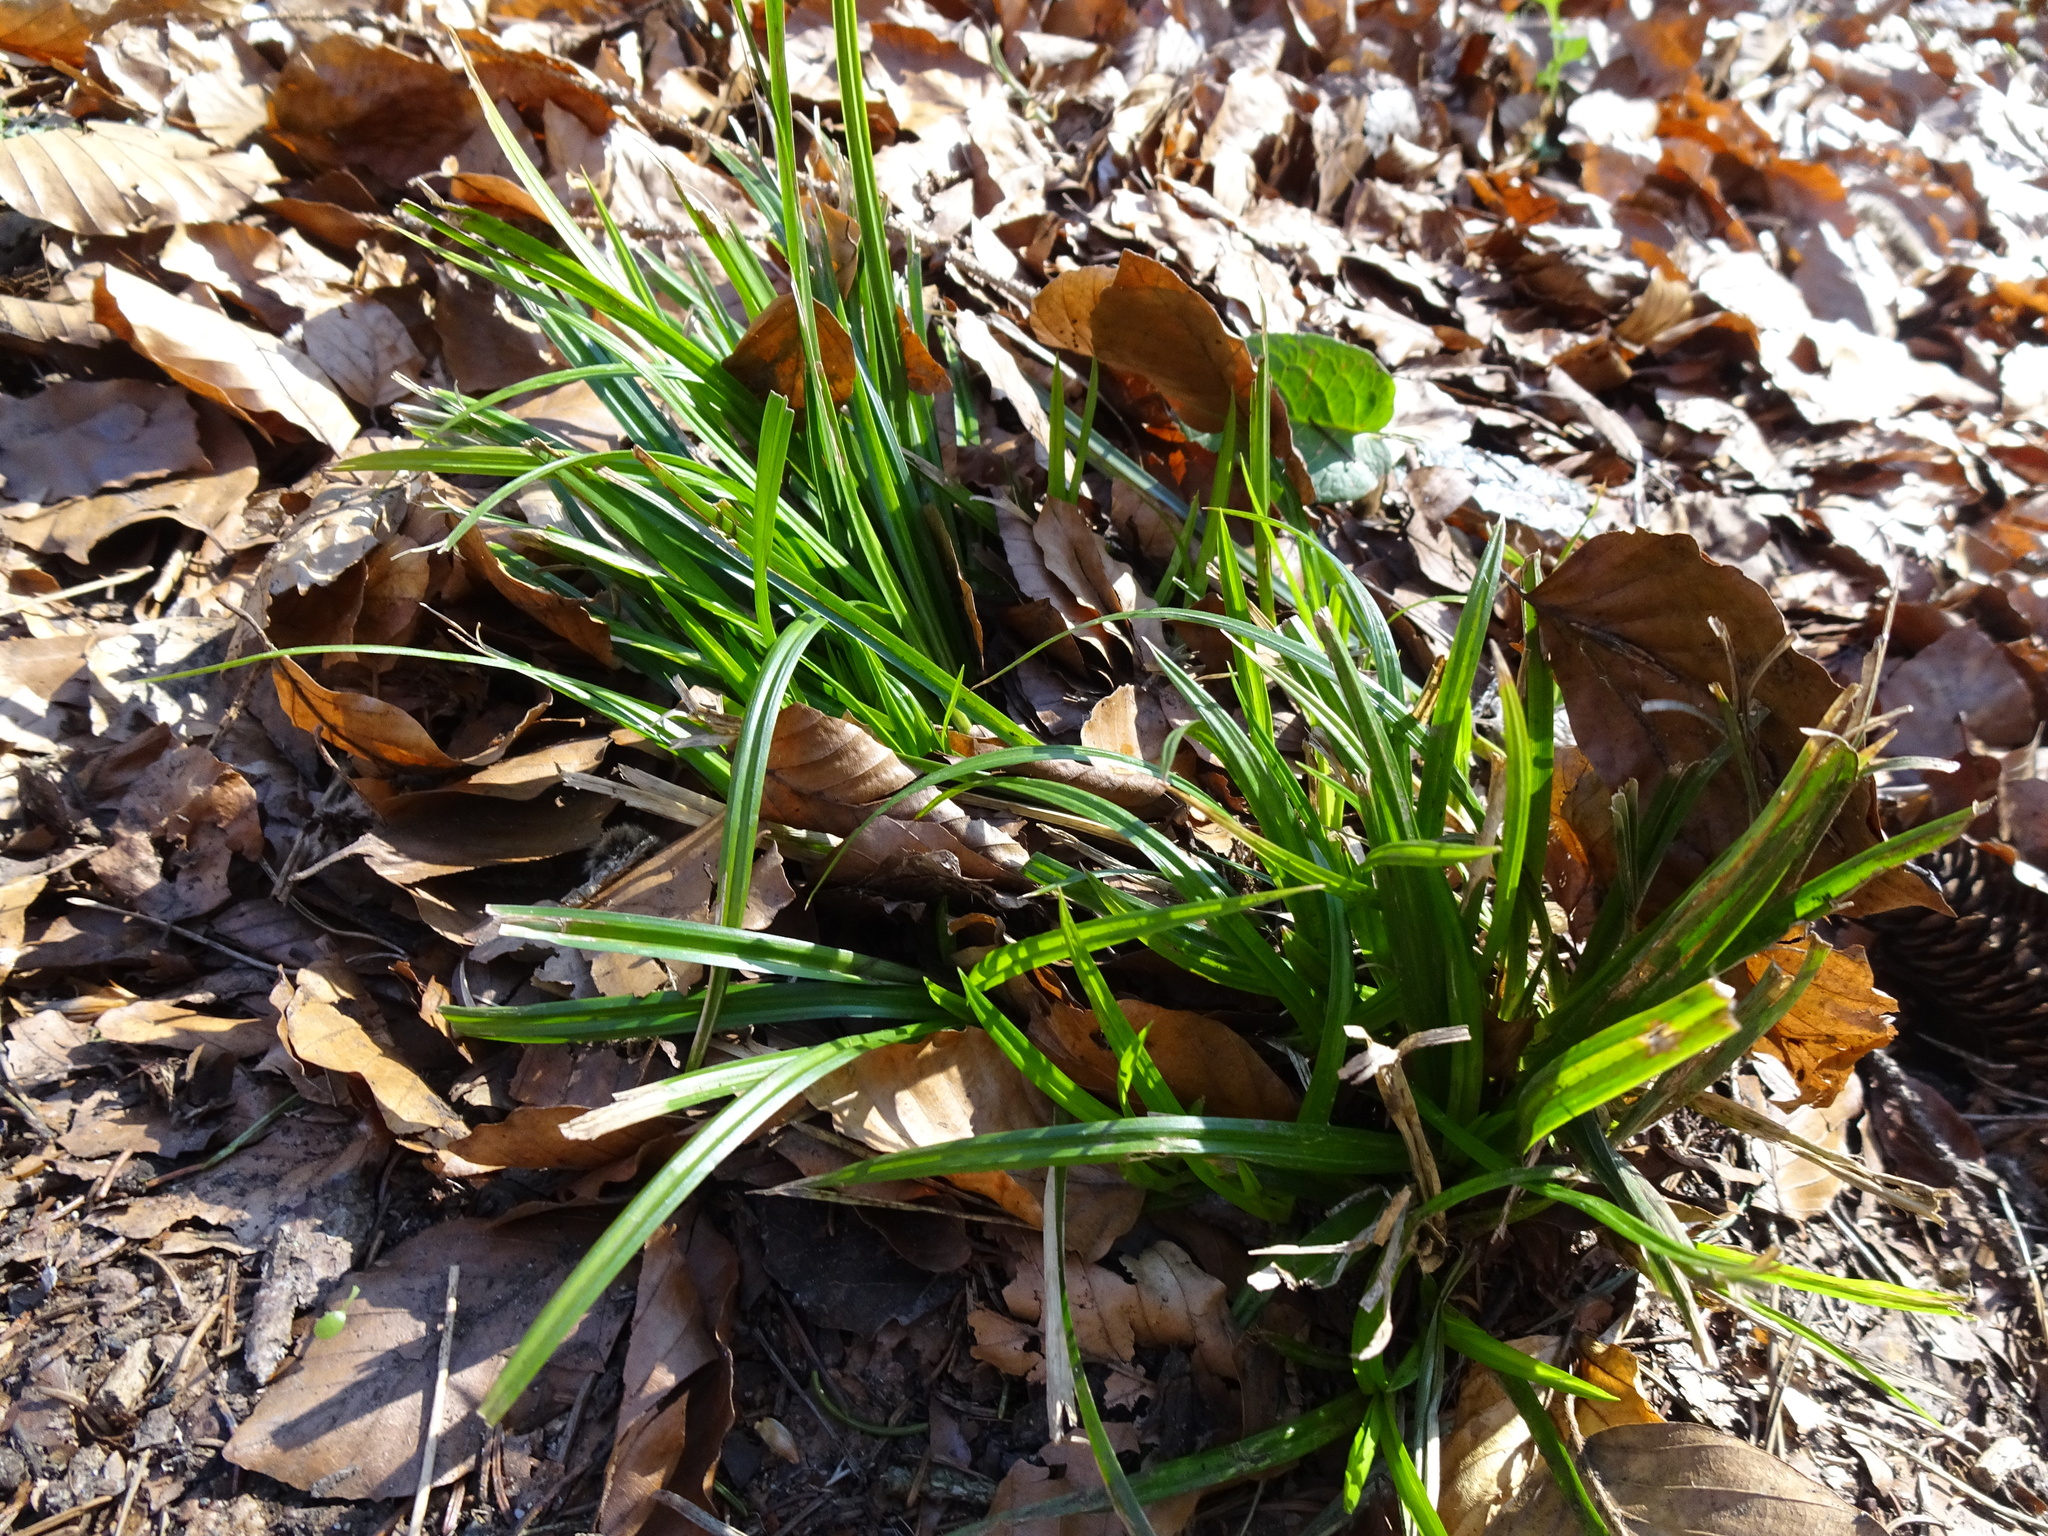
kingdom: Plantae
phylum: Tracheophyta
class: Liliopsida
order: Poales
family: Cyperaceae
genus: Carex
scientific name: Carex sylvatica
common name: Wood-sedge
